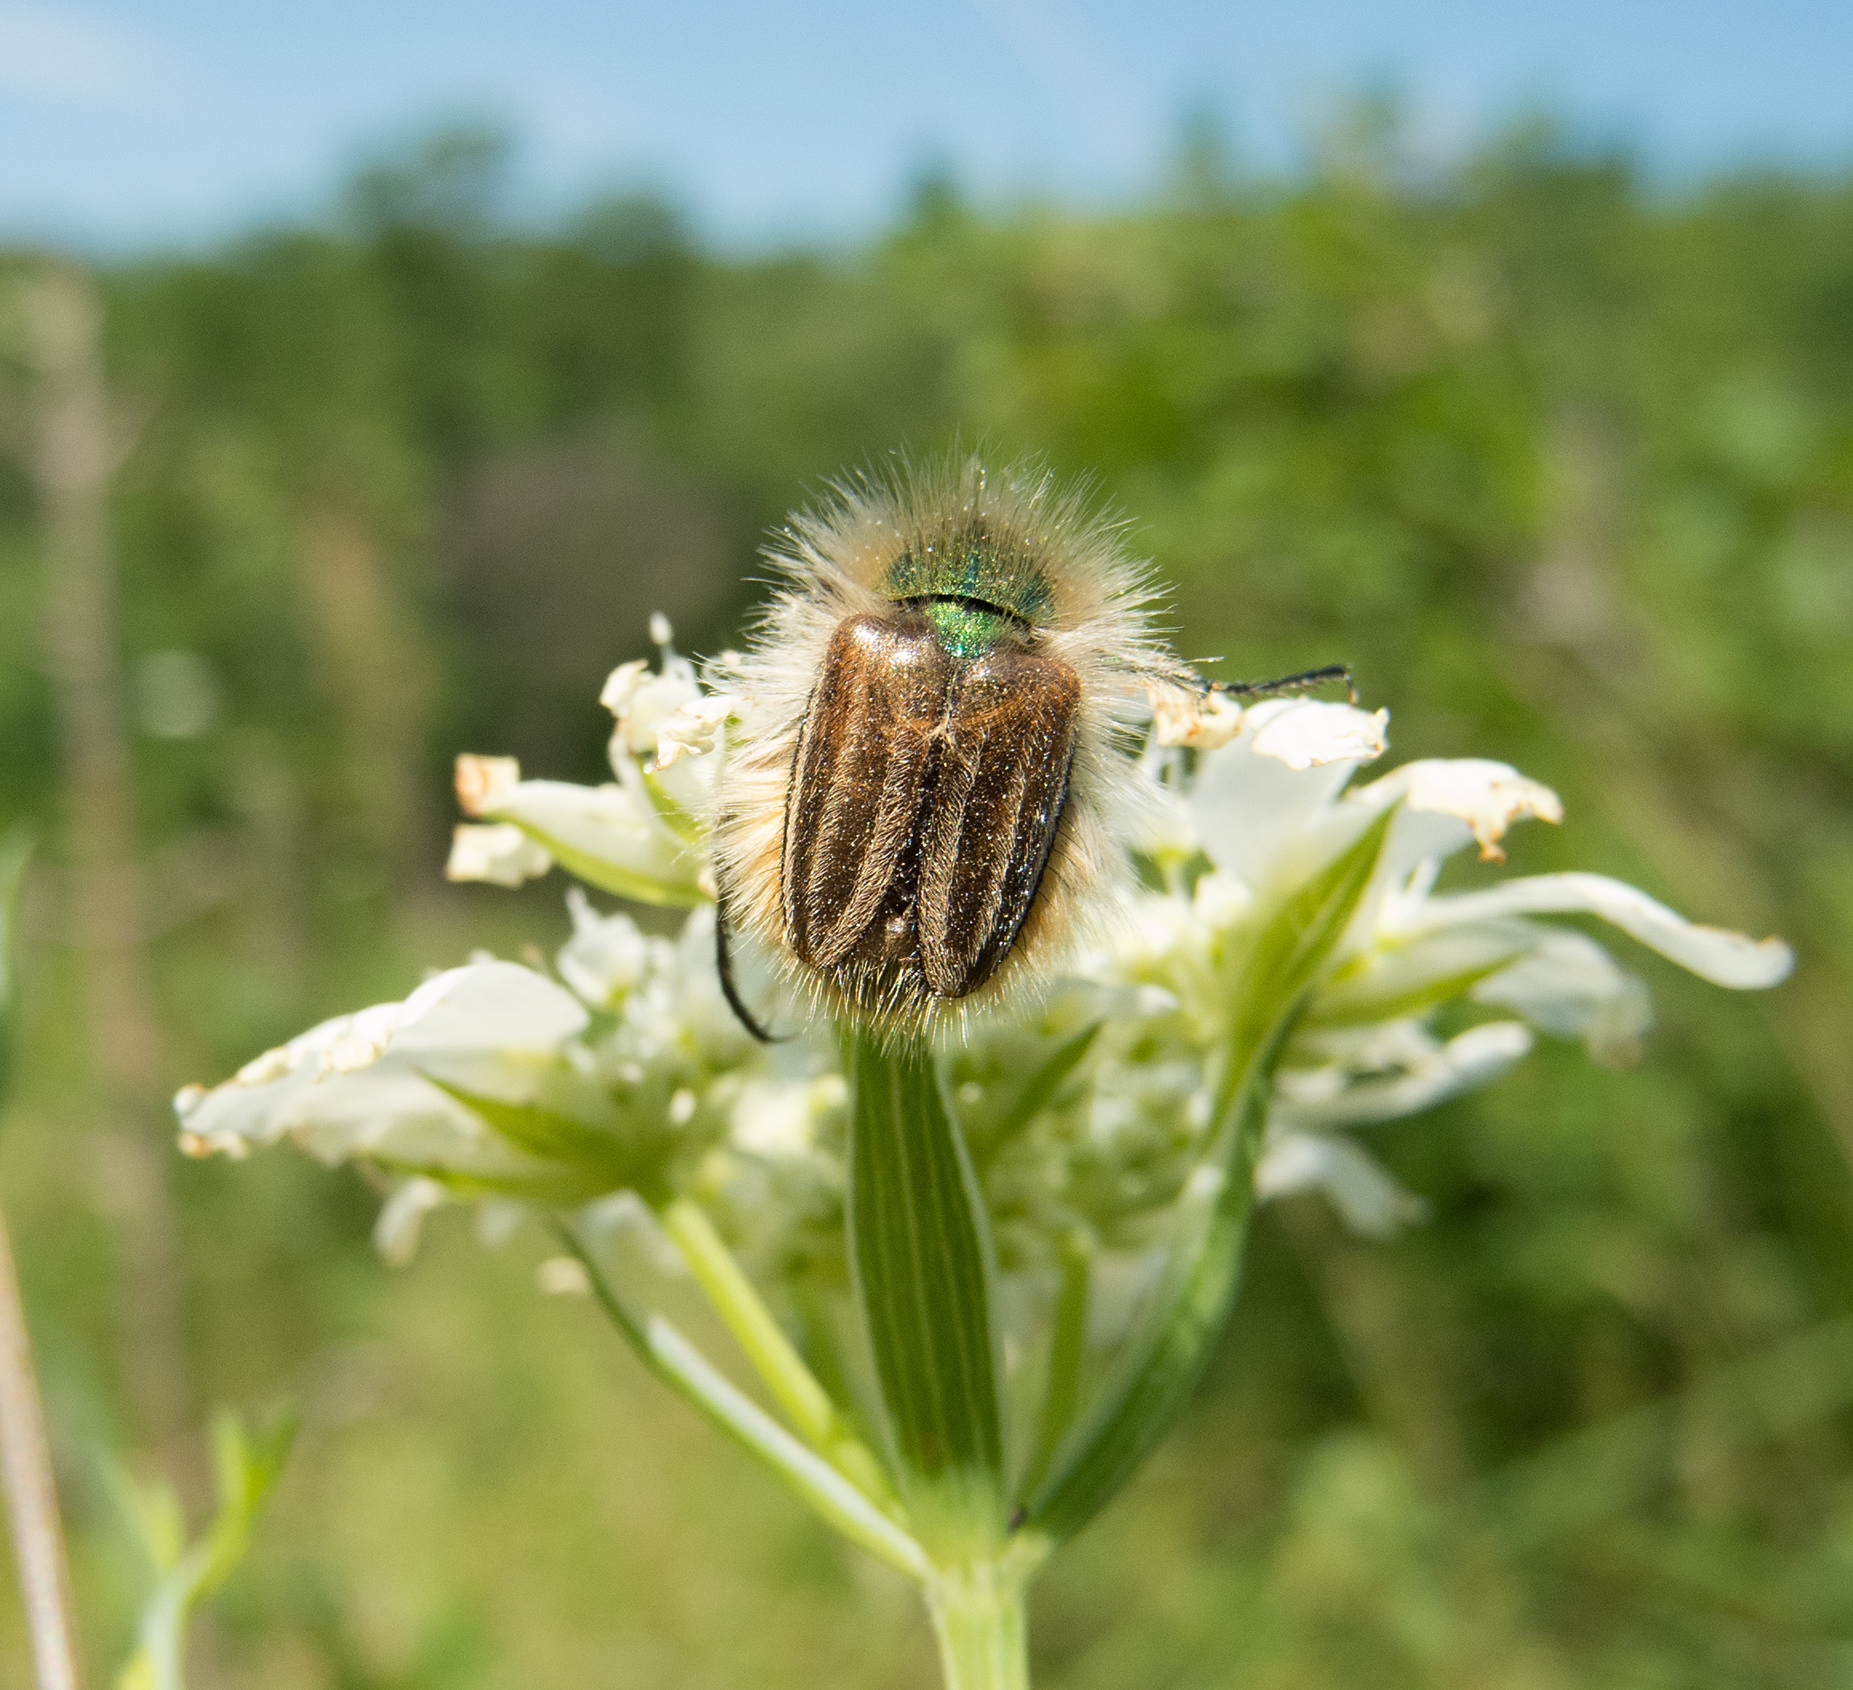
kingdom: Animalia
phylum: Arthropoda
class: Insecta
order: Coleoptera
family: Glaphyridae
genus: Eulasia
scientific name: Eulasia pareyssei
